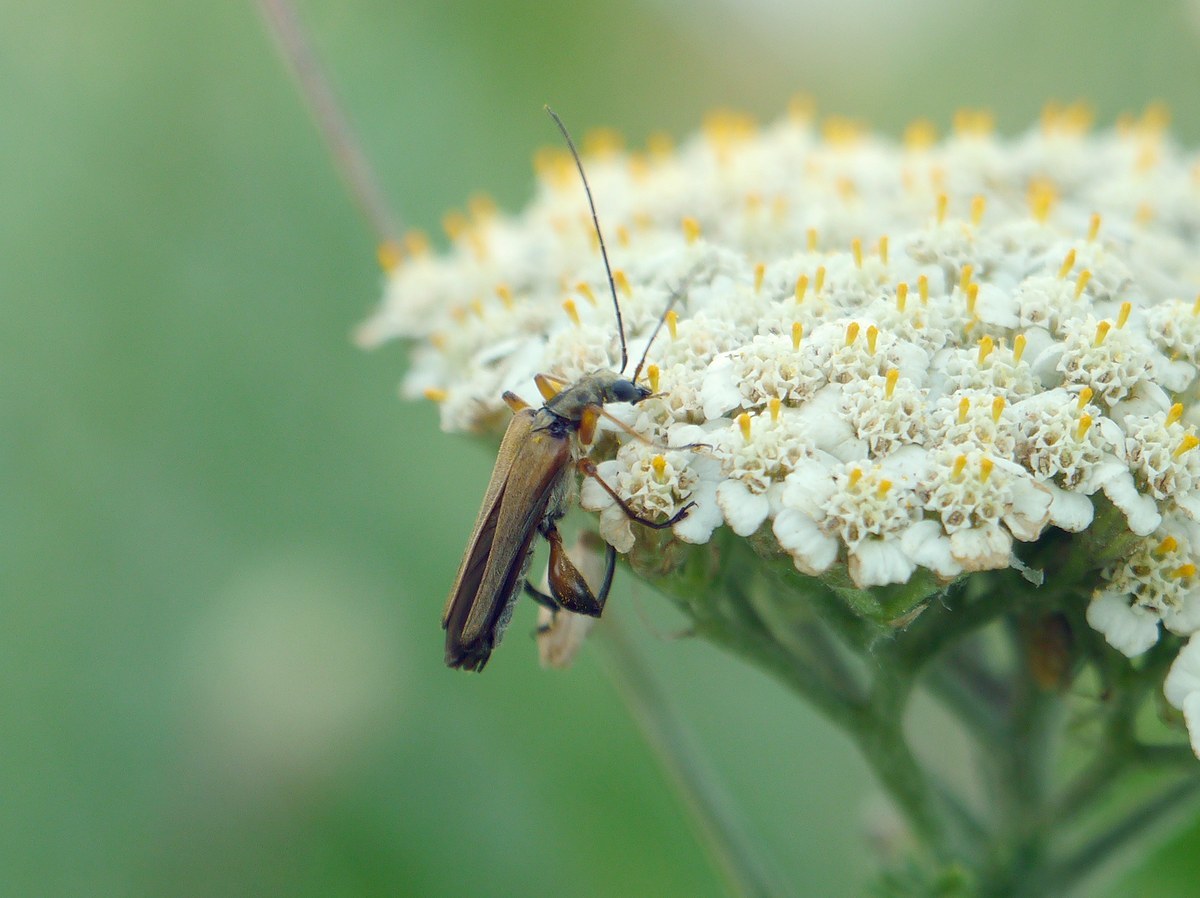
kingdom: Animalia
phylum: Arthropoda
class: Insecta
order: Coleoptera
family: Oedemeridae
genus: Oedemera
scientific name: Oedemera podagrariae
